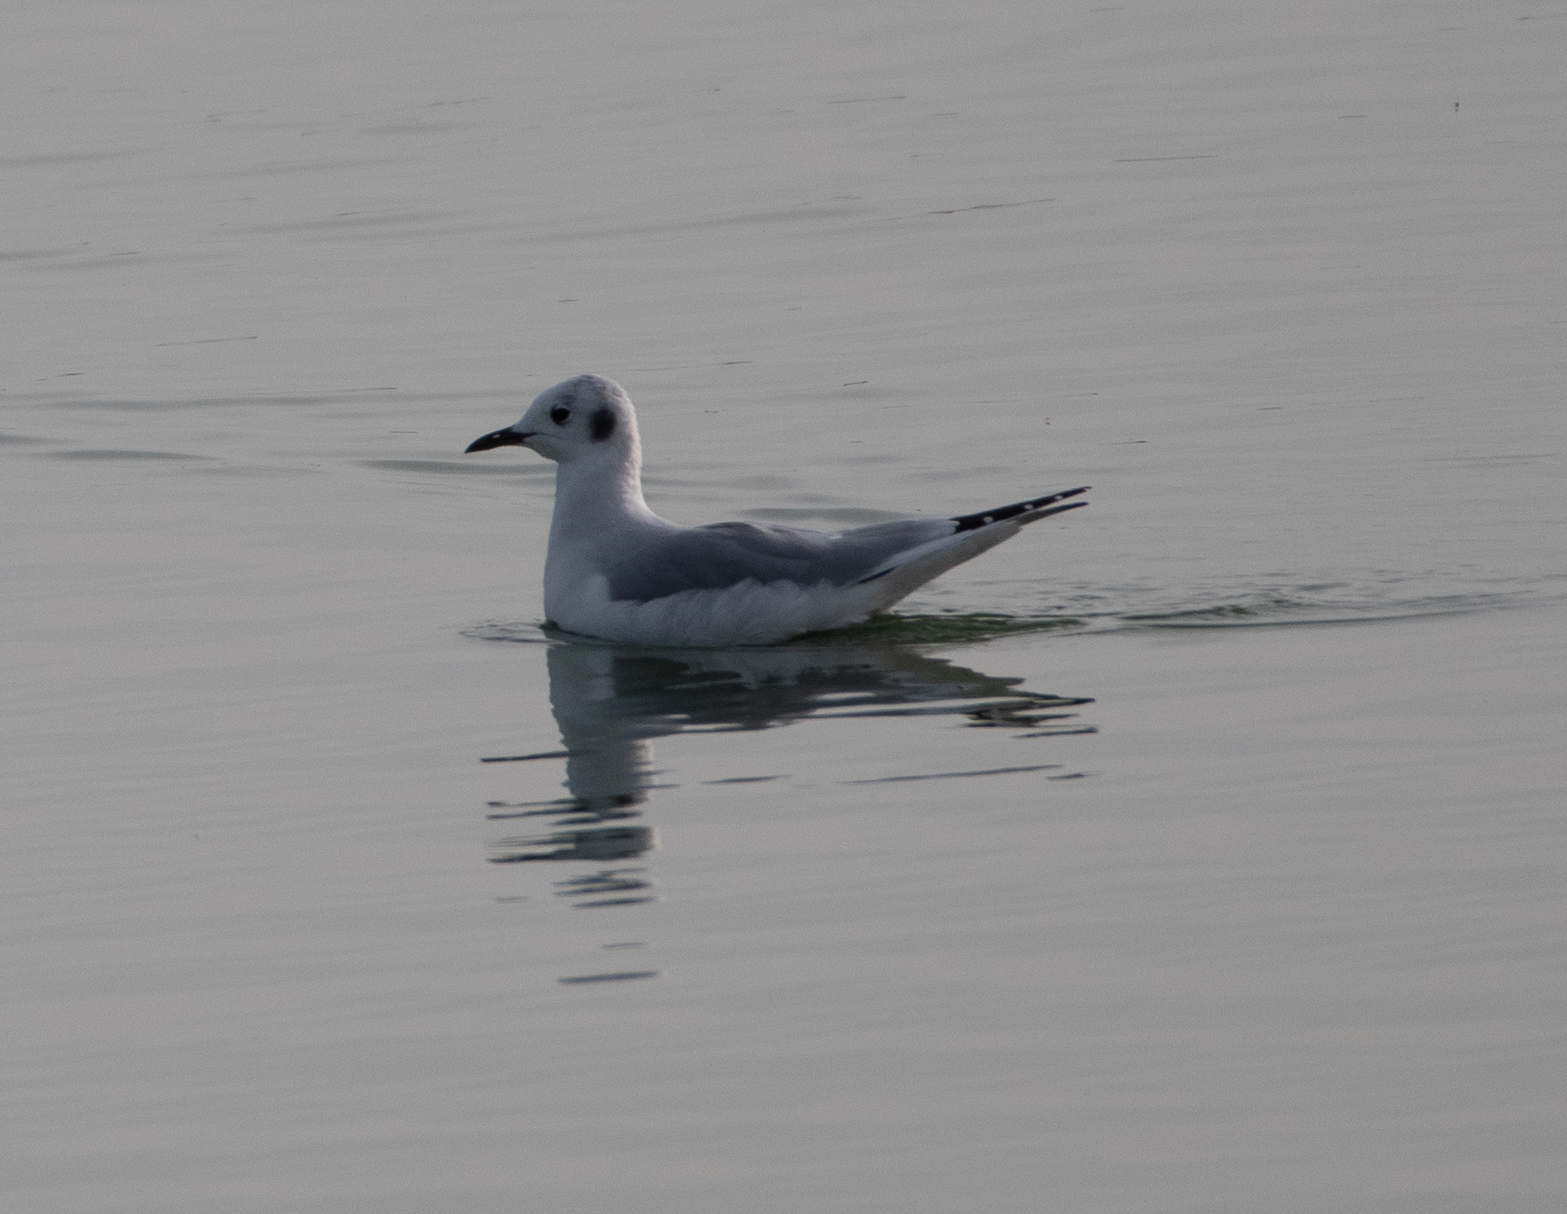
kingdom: Animalia
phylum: Chordata
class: Aves
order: Charadriiformes
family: Laridae
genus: Chroicocephalus
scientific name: Chroicocephalus philadelphia
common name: Bonaparte's gull
